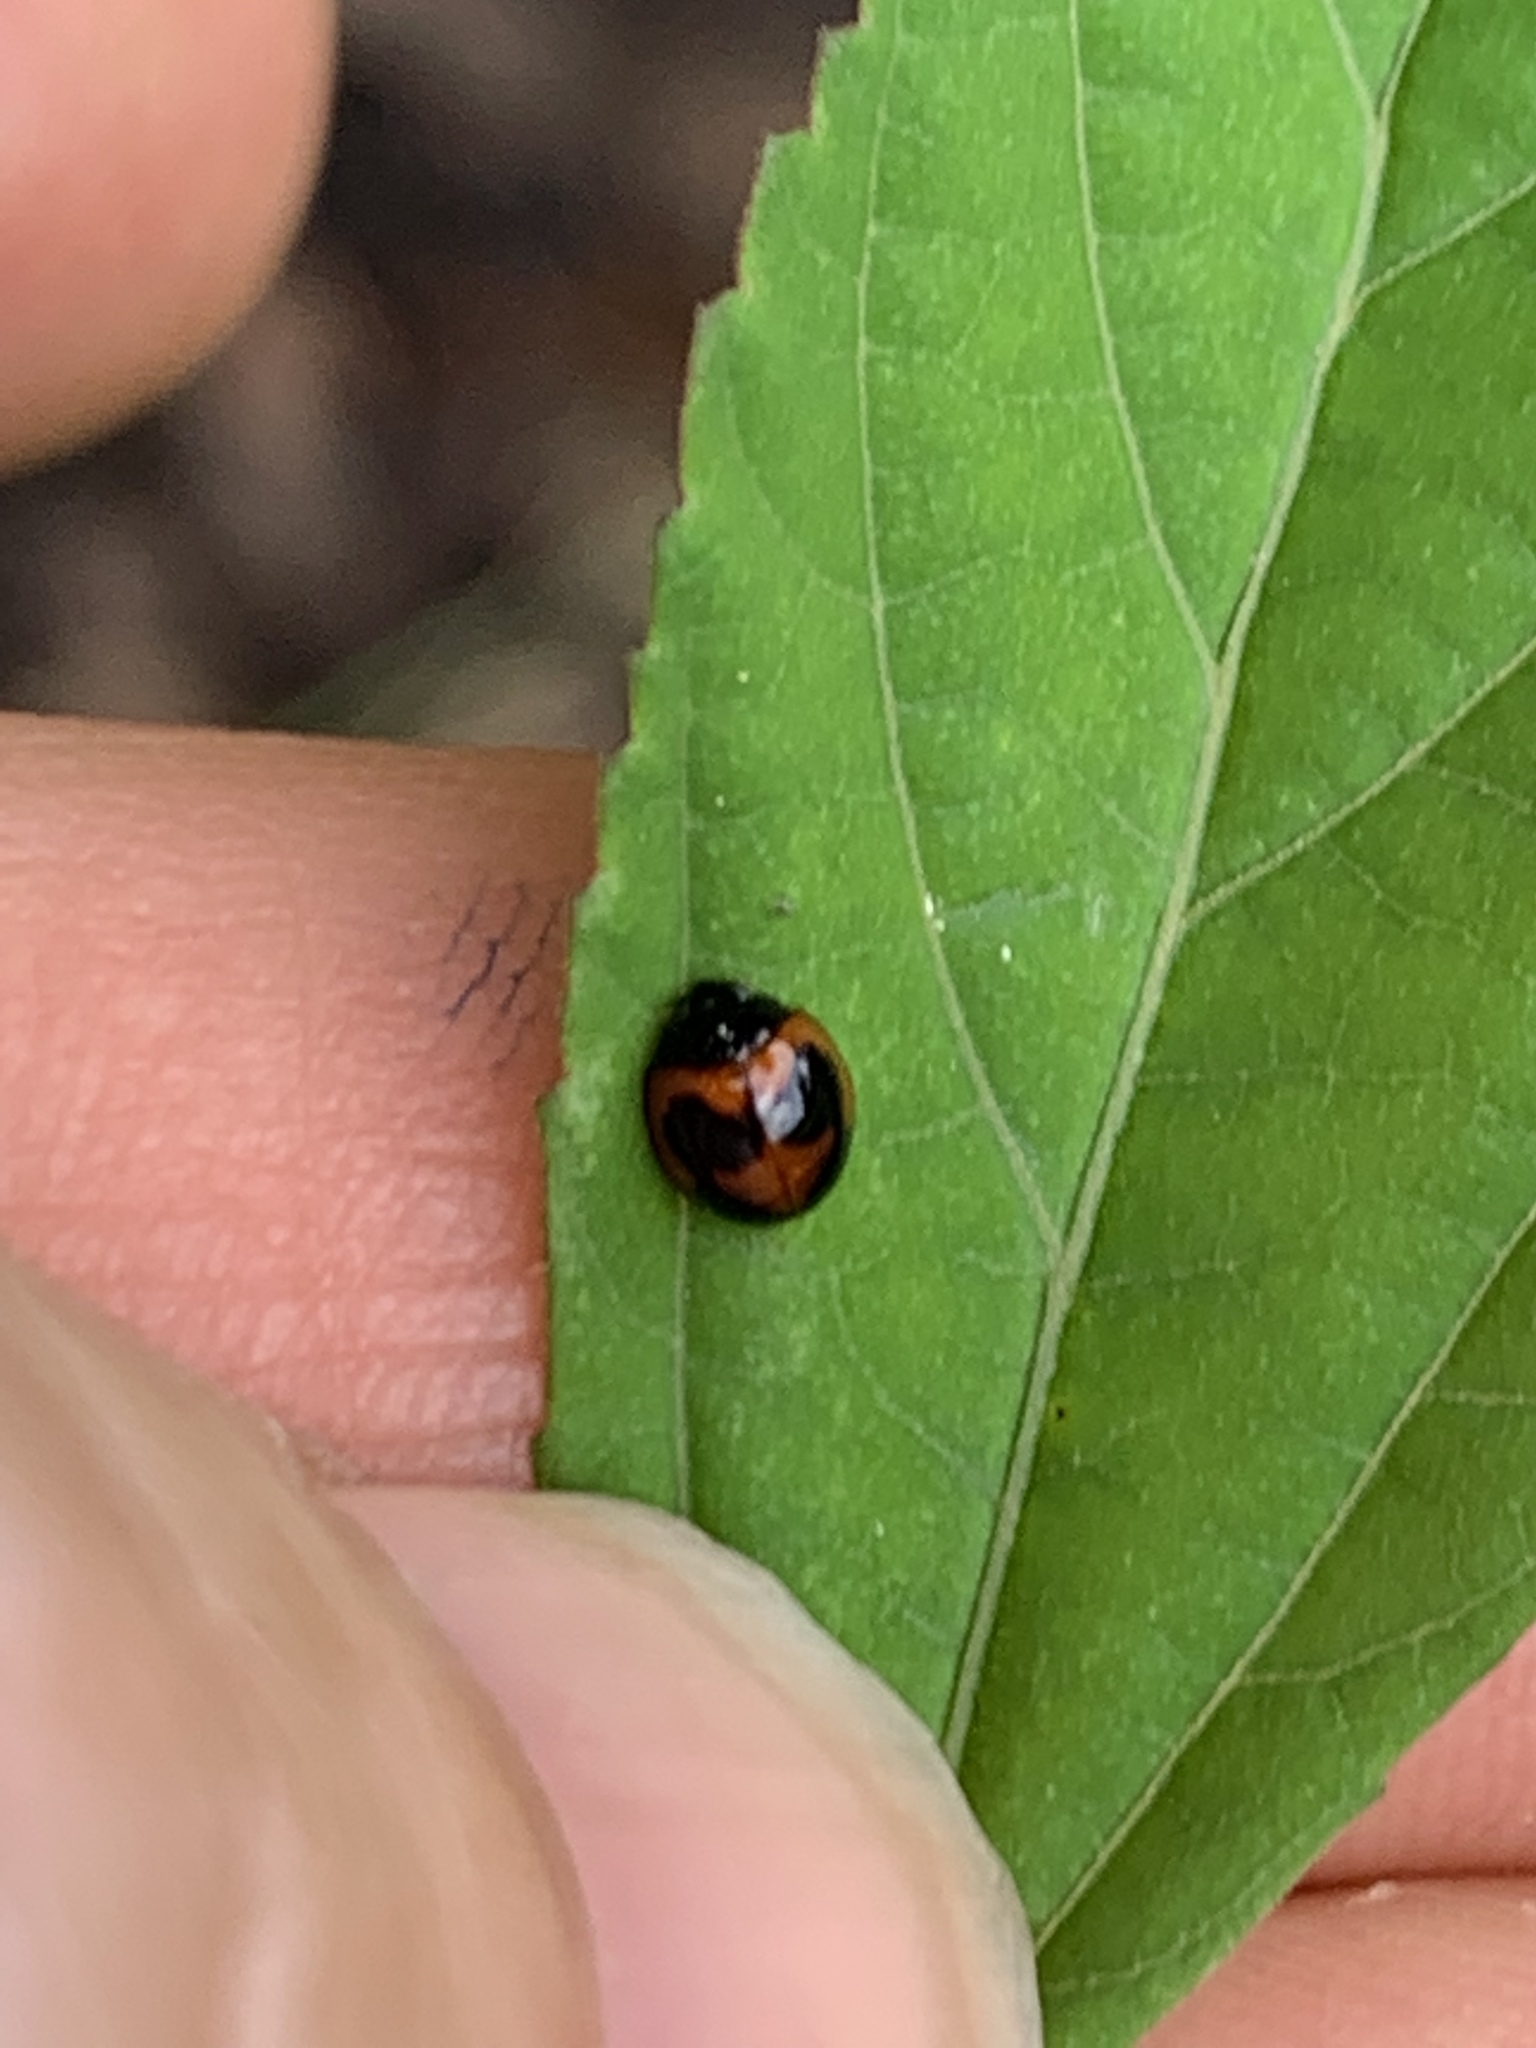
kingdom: Animalia
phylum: Arthropoda
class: Insecta
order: Coleoptera
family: Coccinellidae
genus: Exochomus
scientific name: Exochomus childreni
